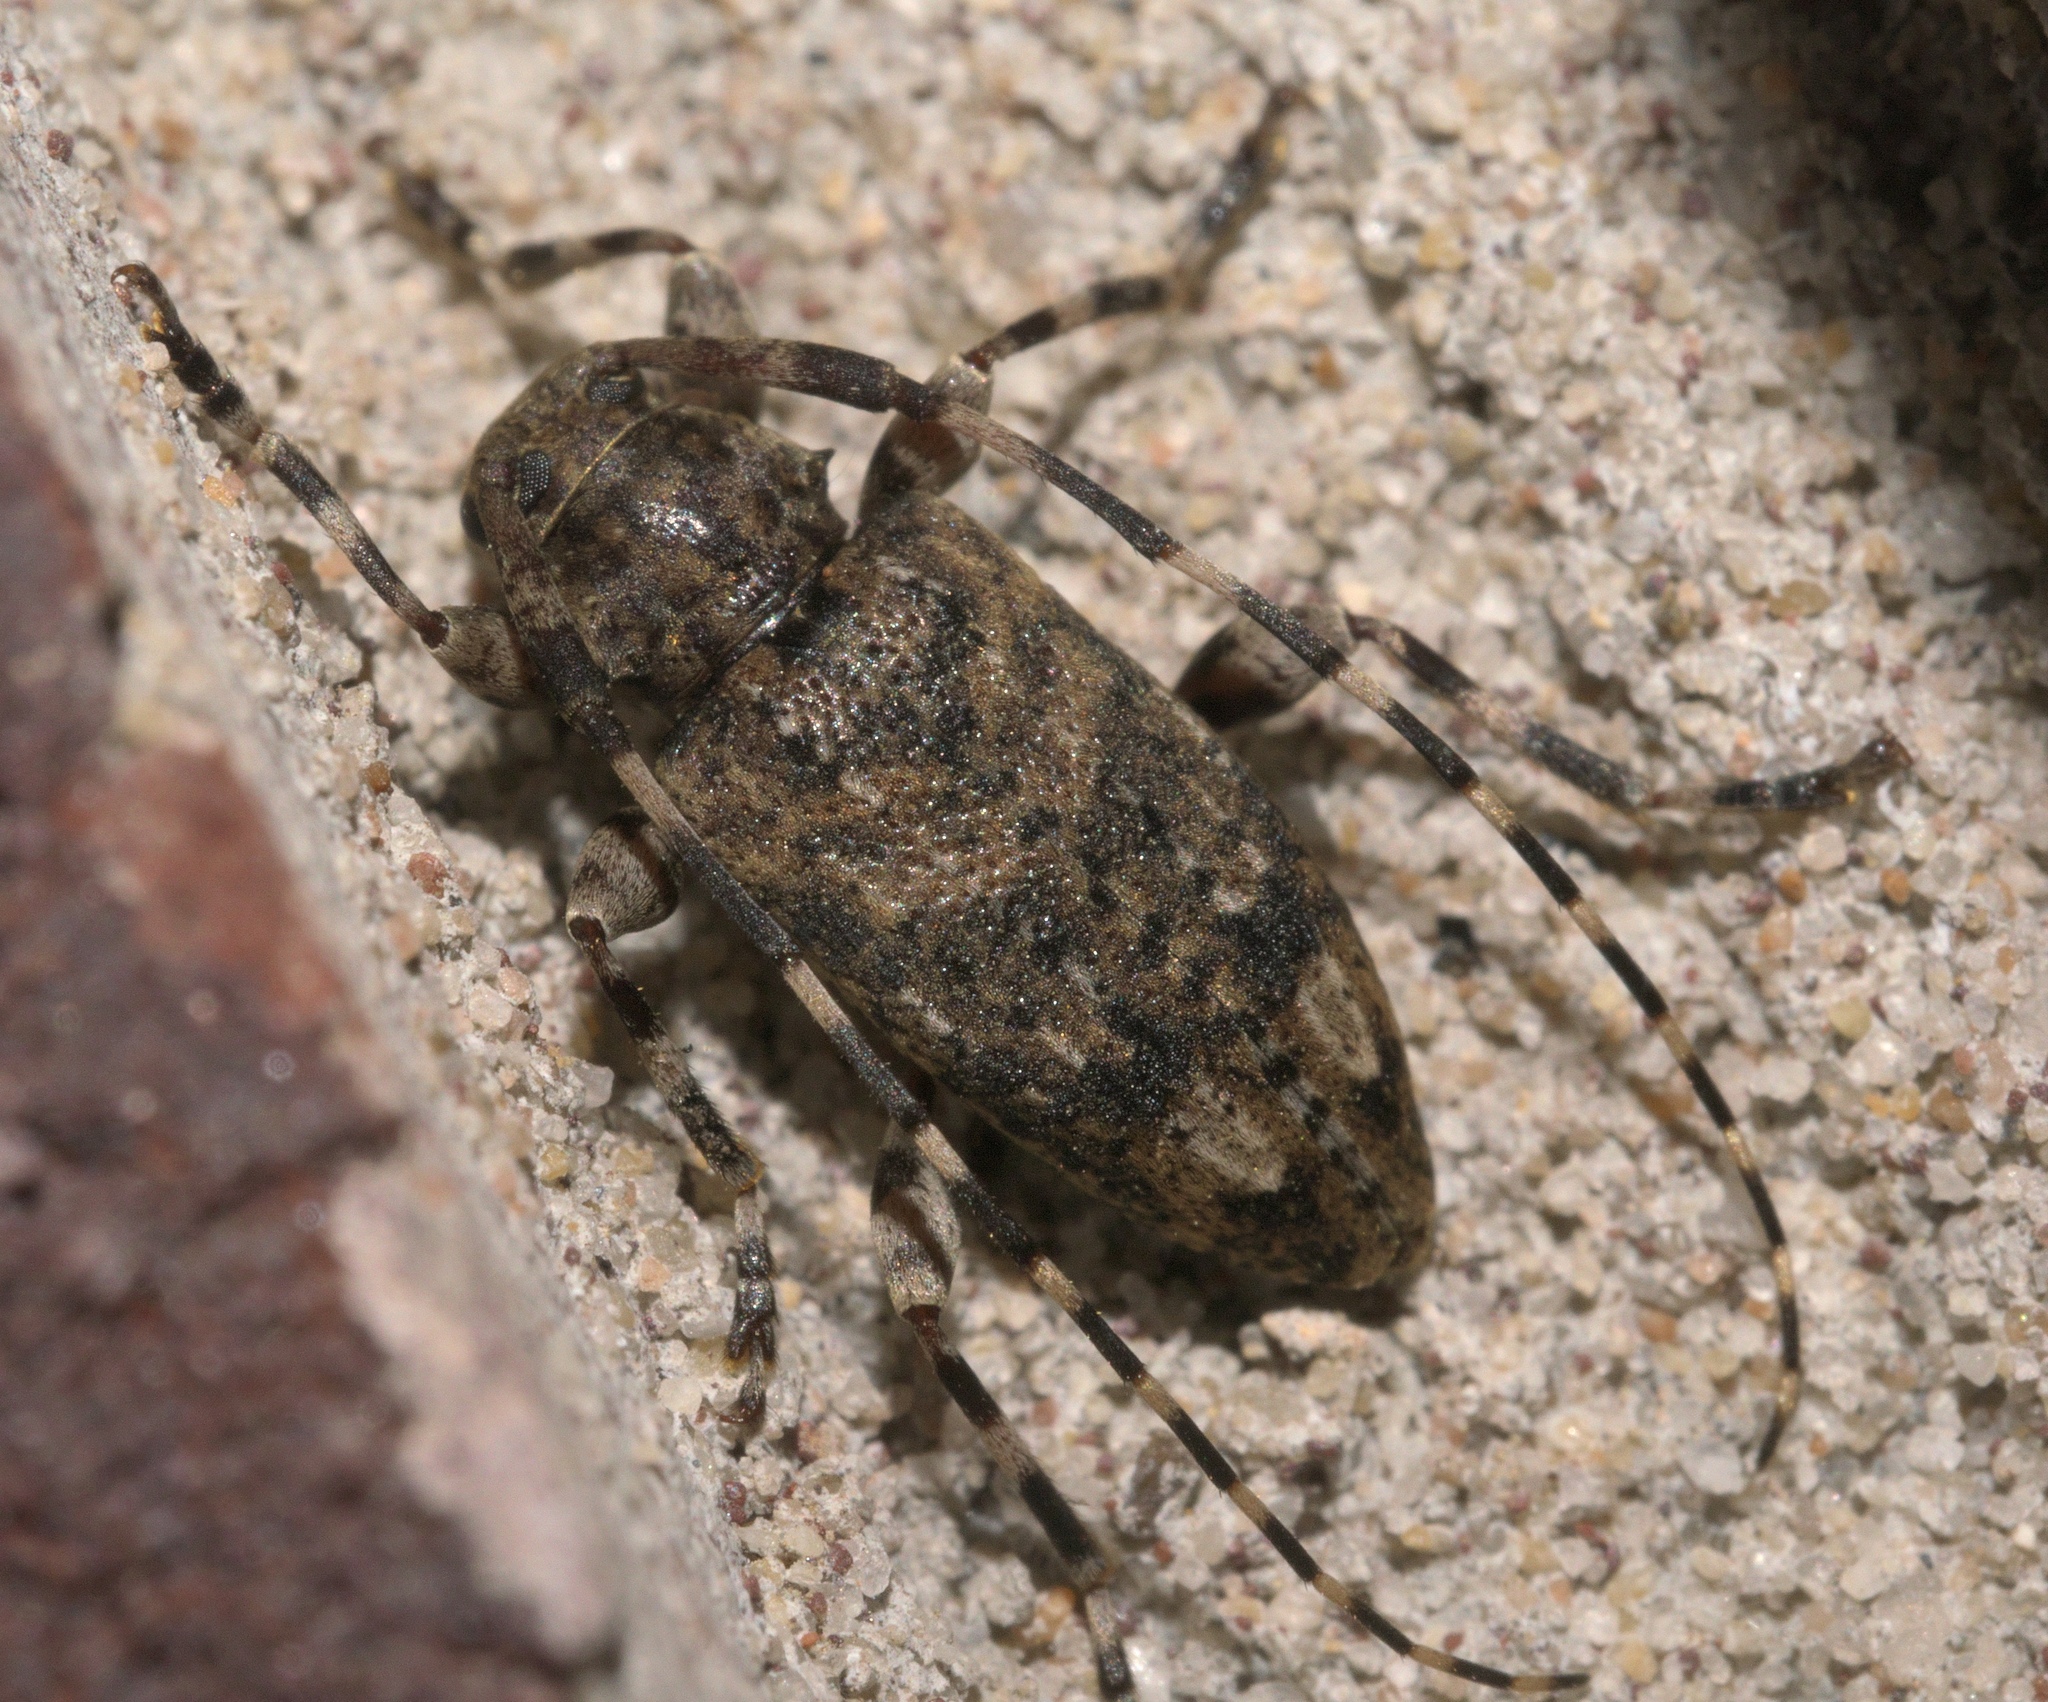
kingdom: Animalia
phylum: Arthropoda
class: Insecta
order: Coleoptera
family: Cerambycidae
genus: Astyleiopus
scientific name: Astyleiopus variegatus
